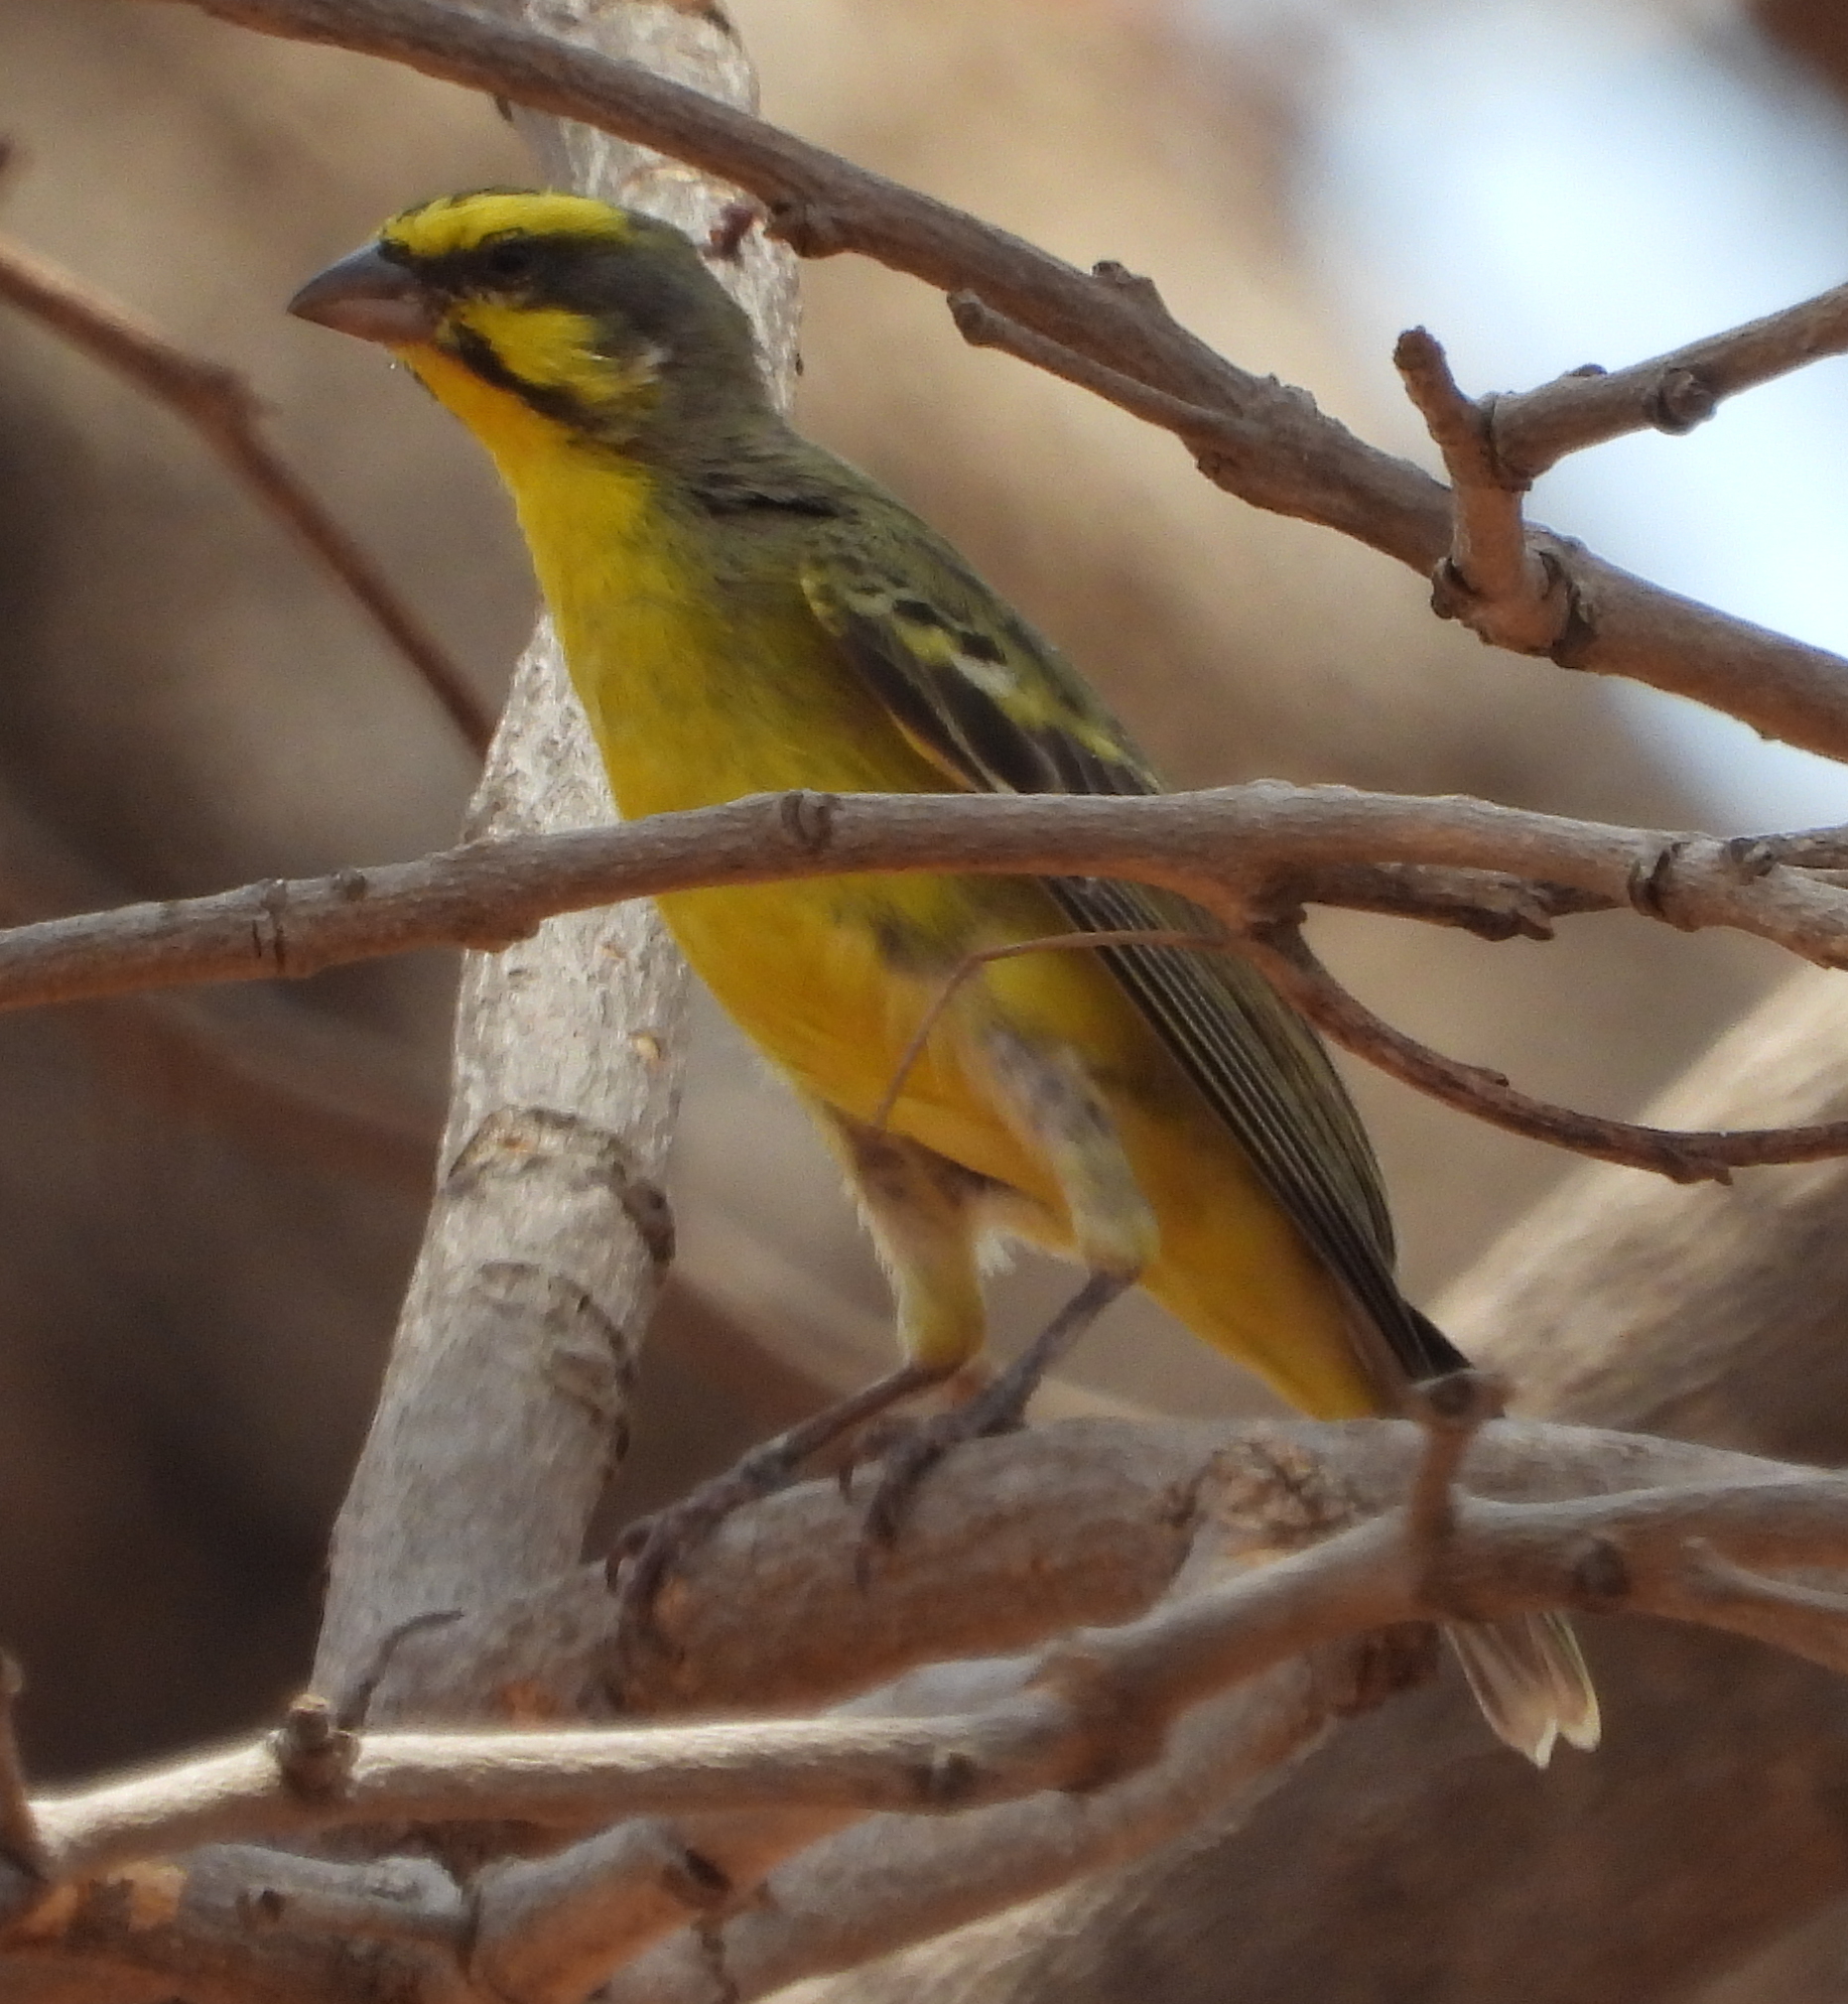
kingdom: Animalia
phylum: Chordata
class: Aves
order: Passeriformes
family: Fringillidae
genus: Crithagra
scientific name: Crithagra mozambica
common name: Yellow-fronted canary
